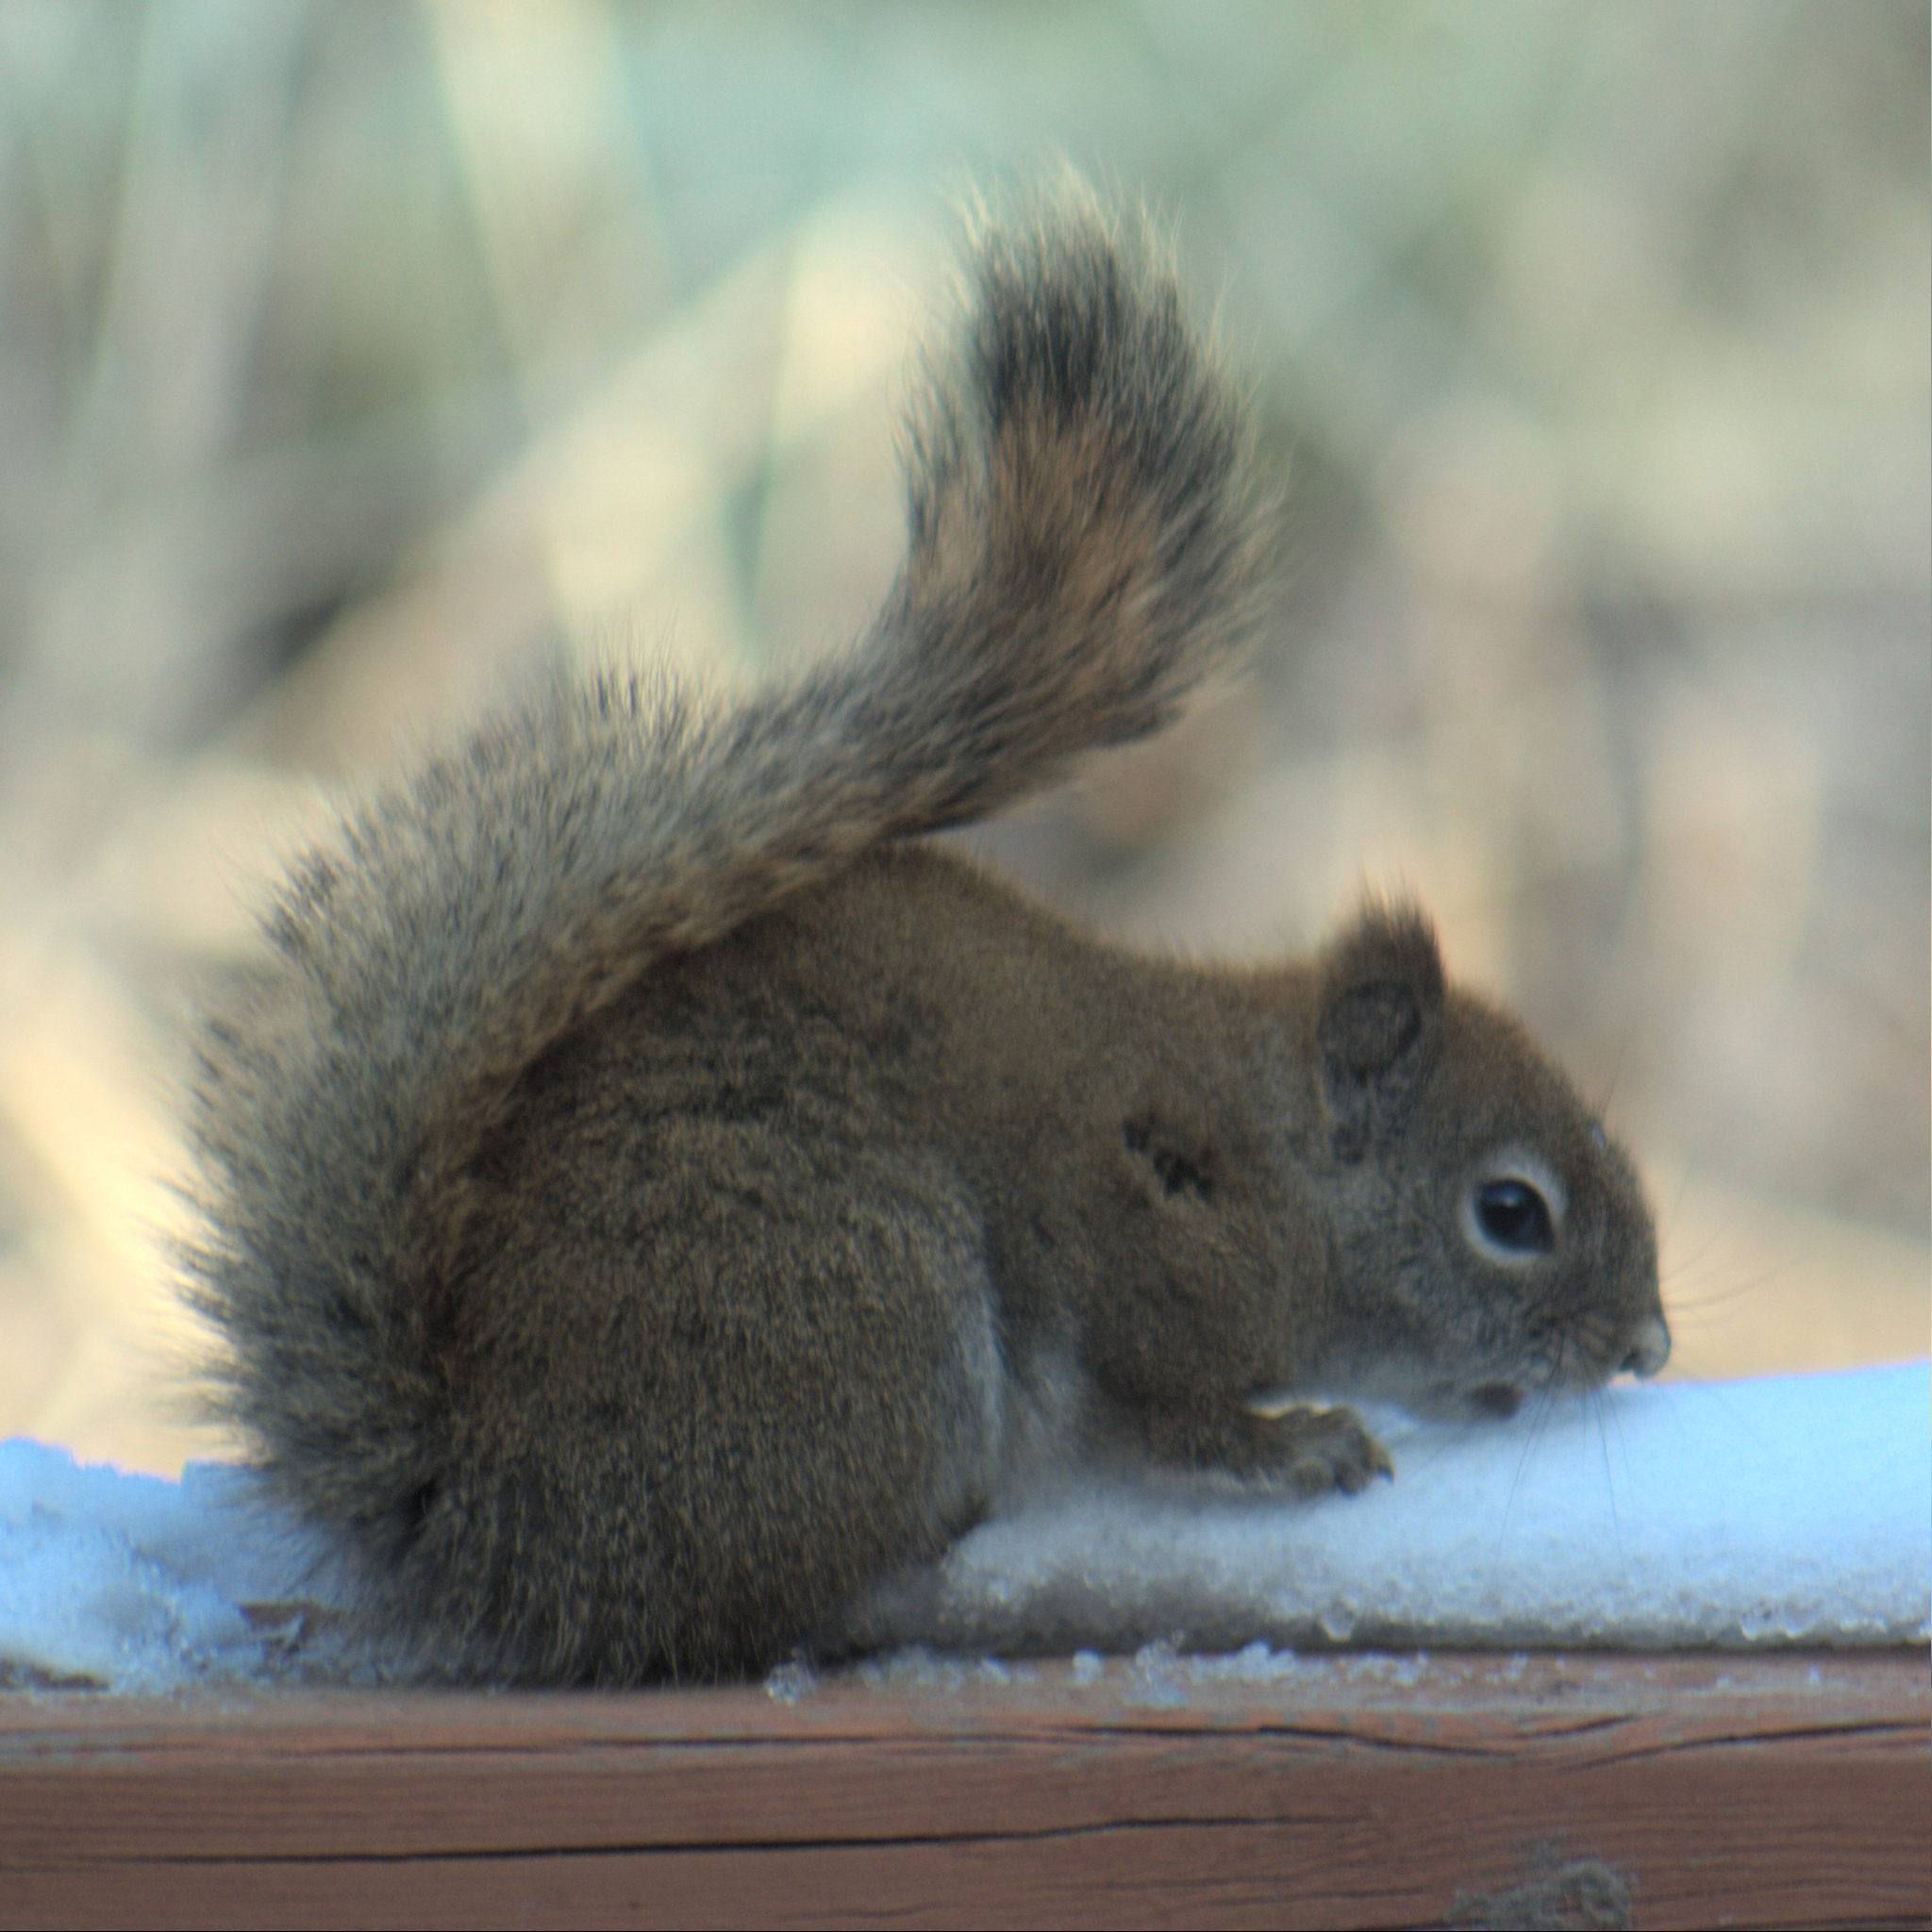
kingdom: Animalia
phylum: Chordata
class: Mammalia
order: Rodentia
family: Sciuridae
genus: Tamiasciurus
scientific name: Tamiasciurus hudsonicus
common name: Red squirrel
